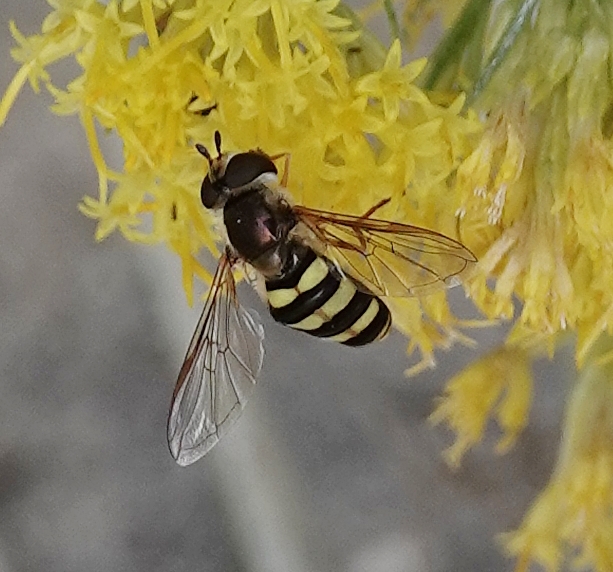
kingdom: Animalia
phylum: Arthropoda
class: Insecta
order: Diptera
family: Syrphidae
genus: Eupeodes
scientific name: Eupeodes
